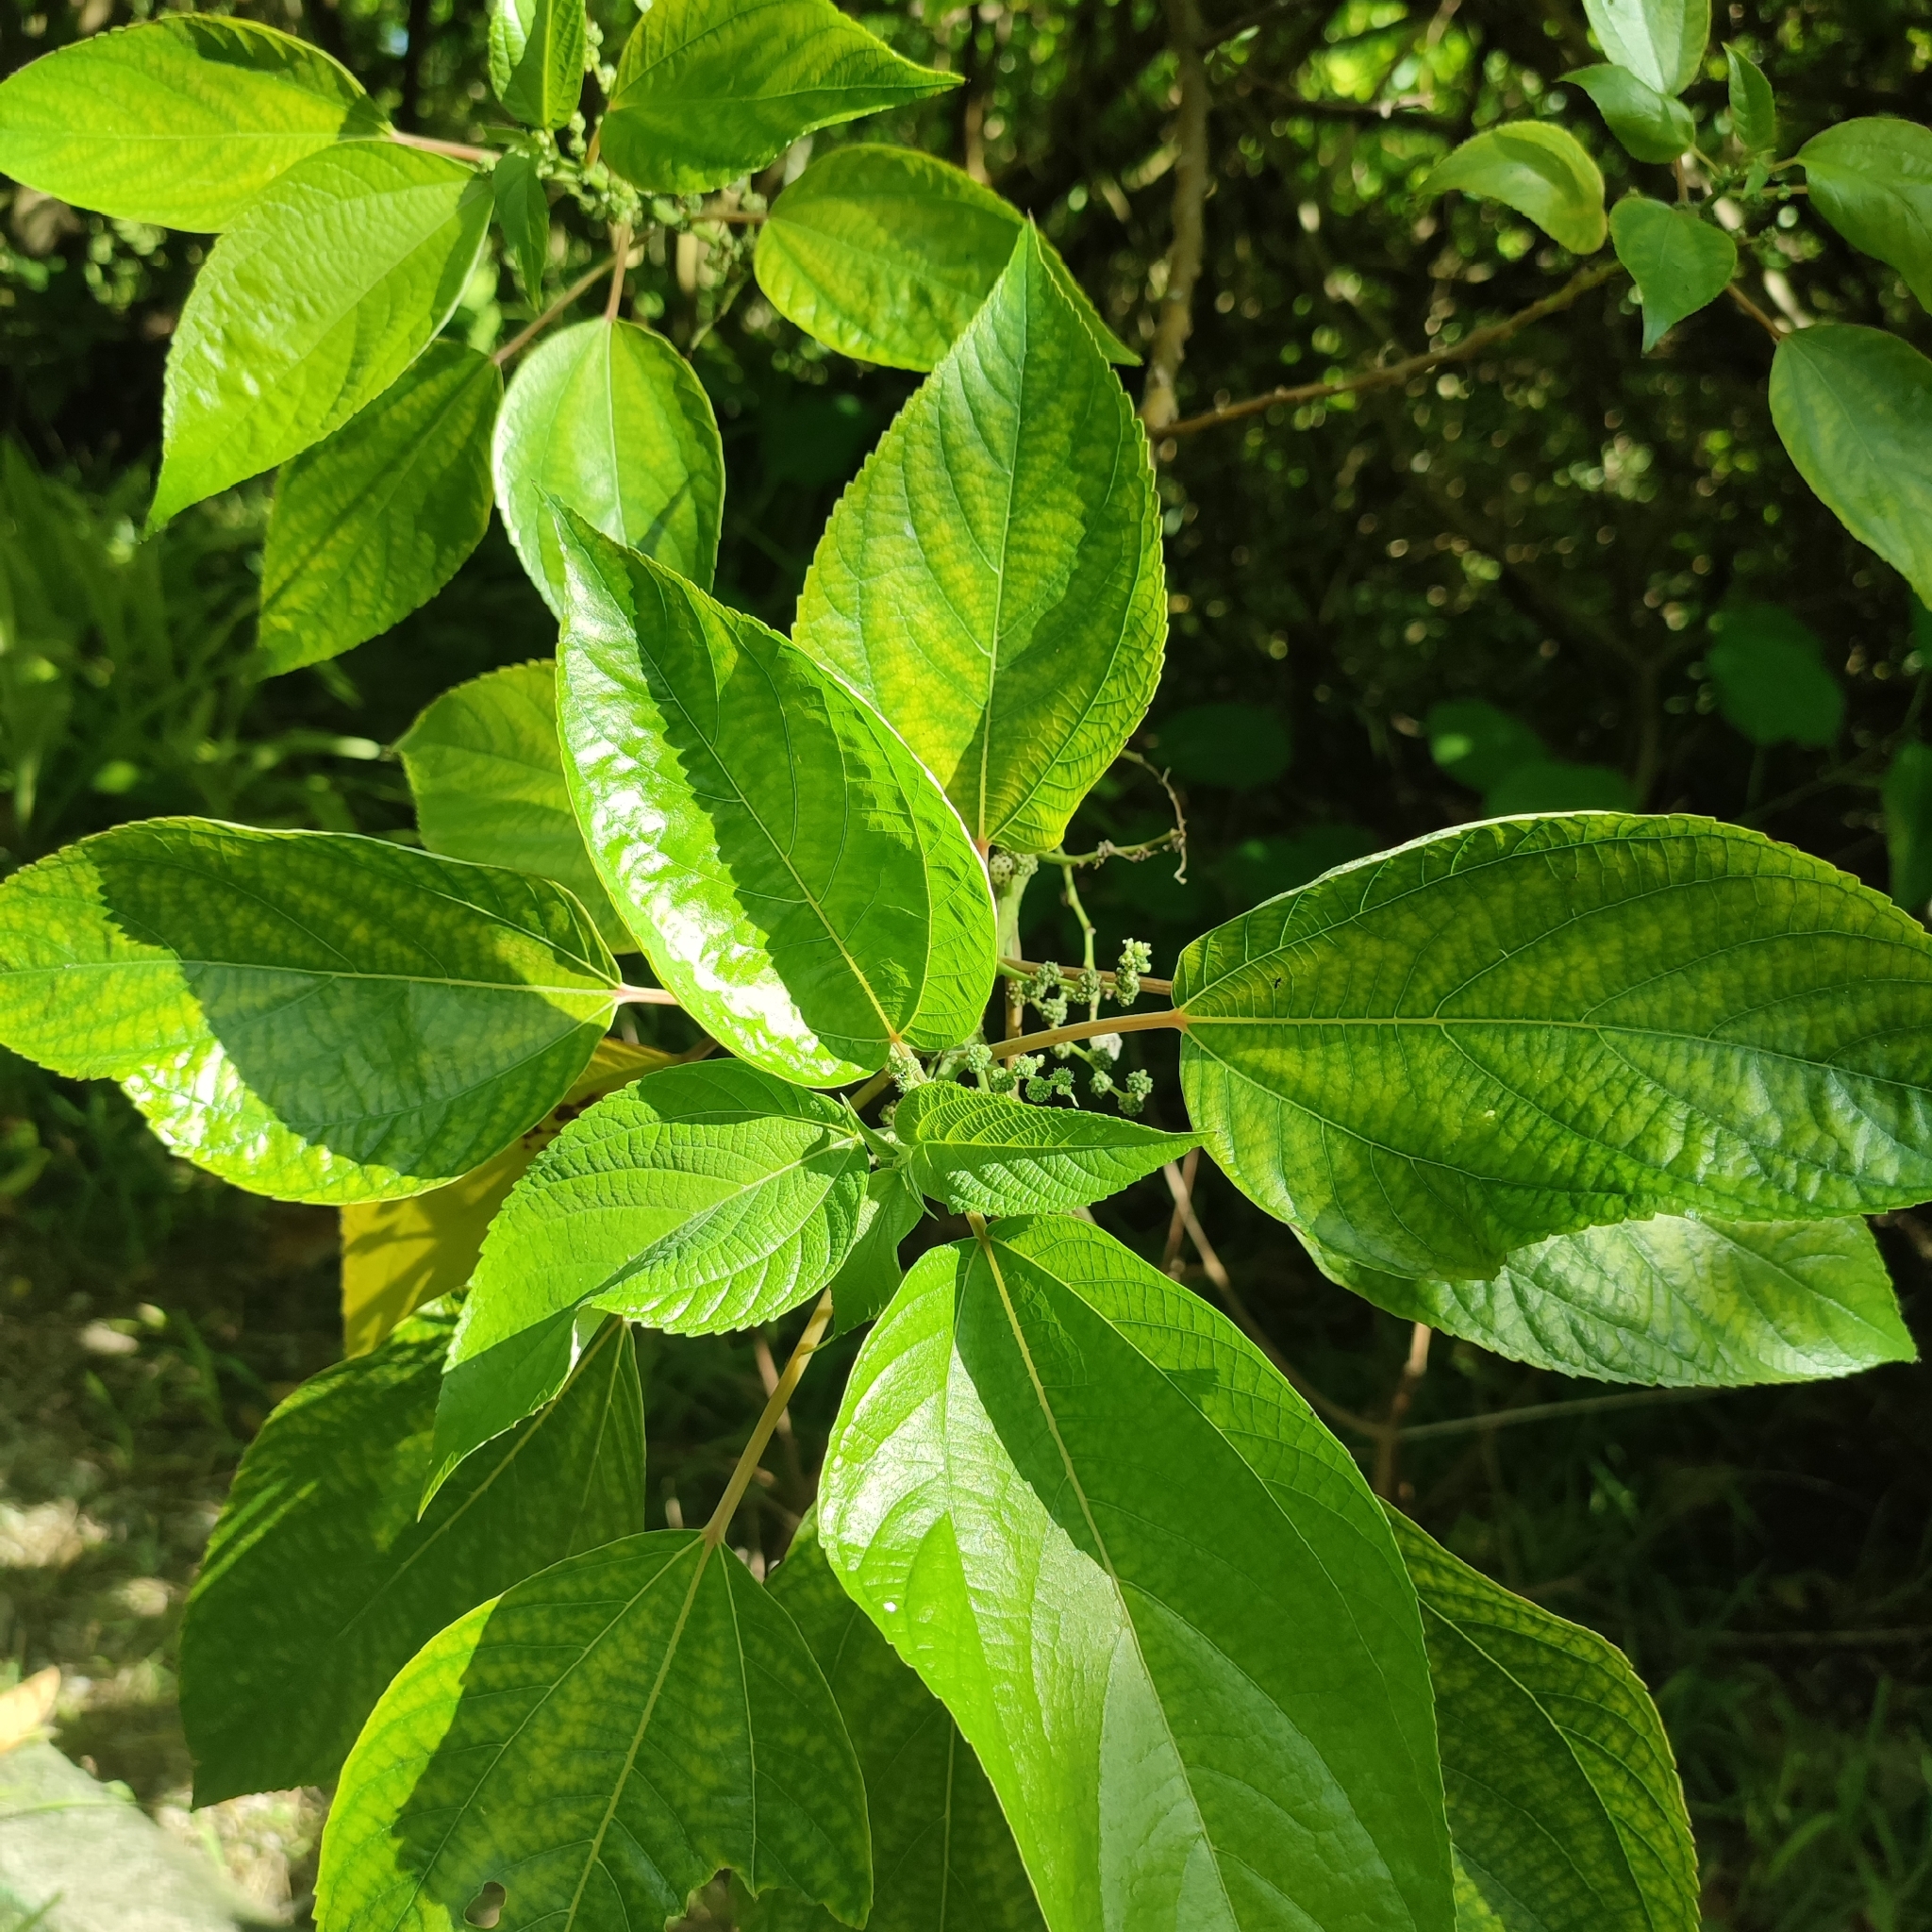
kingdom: Plantae
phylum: Tracheophyta
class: Magnoliopsida
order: Rosales
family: Urticaceae
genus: Pipturus
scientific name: Pipturus argenteus
